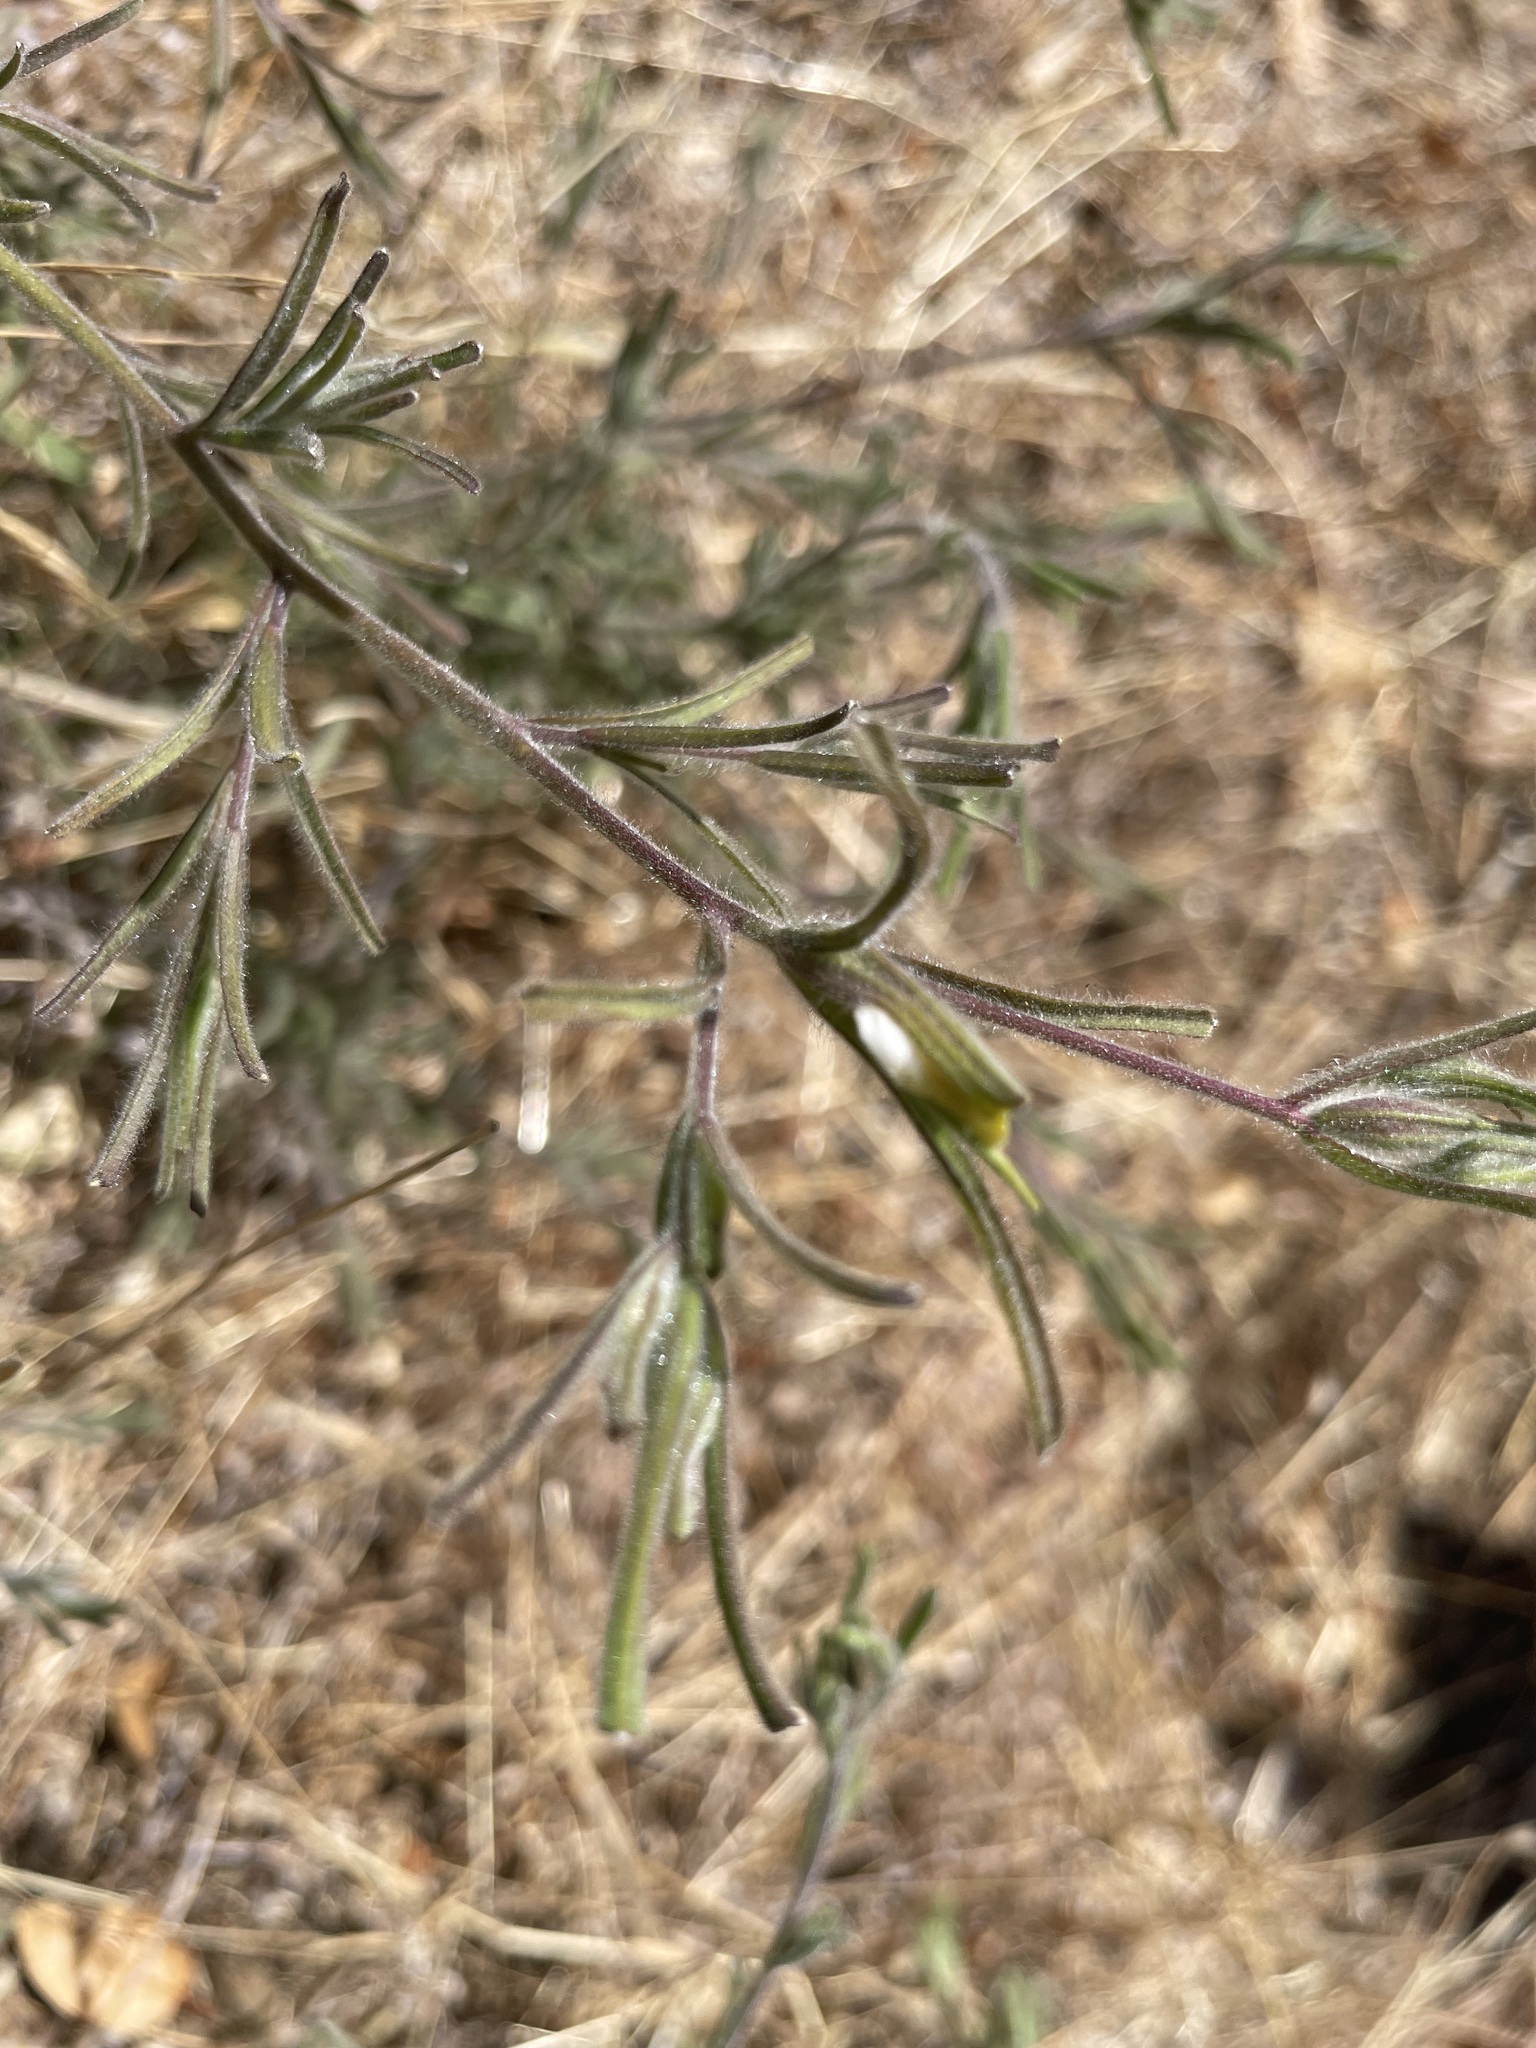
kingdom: Plantae
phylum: Tracheophyta
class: Magnoliopsida
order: Lamiales
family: Orobanchaceae
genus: Cordylanthus
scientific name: Cordylanthus pilosus
